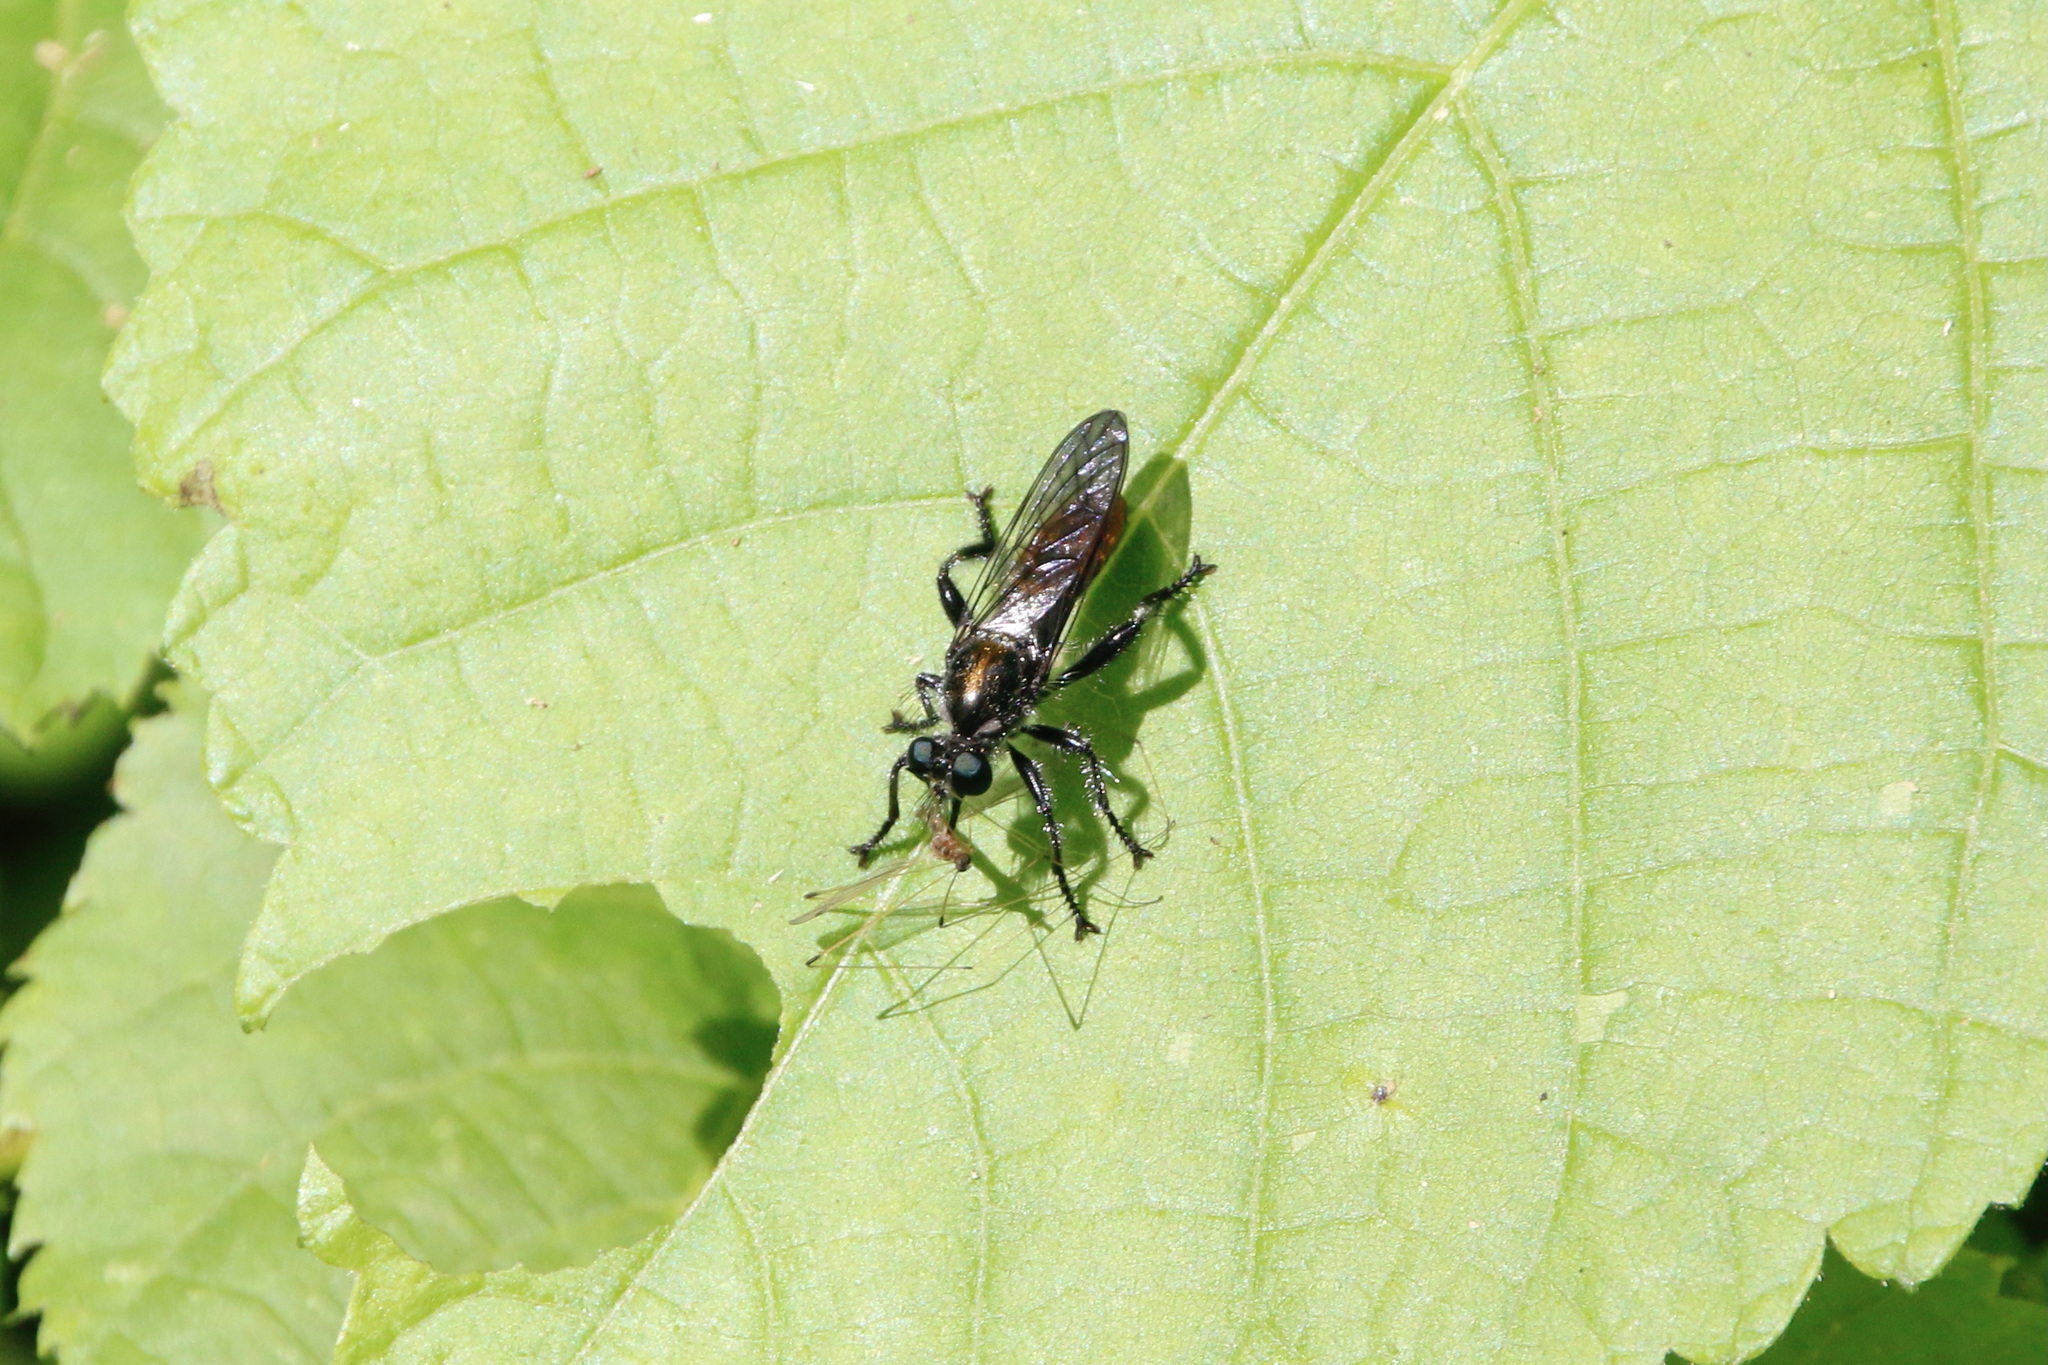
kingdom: Animalia
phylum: Arthropoda
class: Insecta
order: Diptera
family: Asilidae
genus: Laphria
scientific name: Laphria
